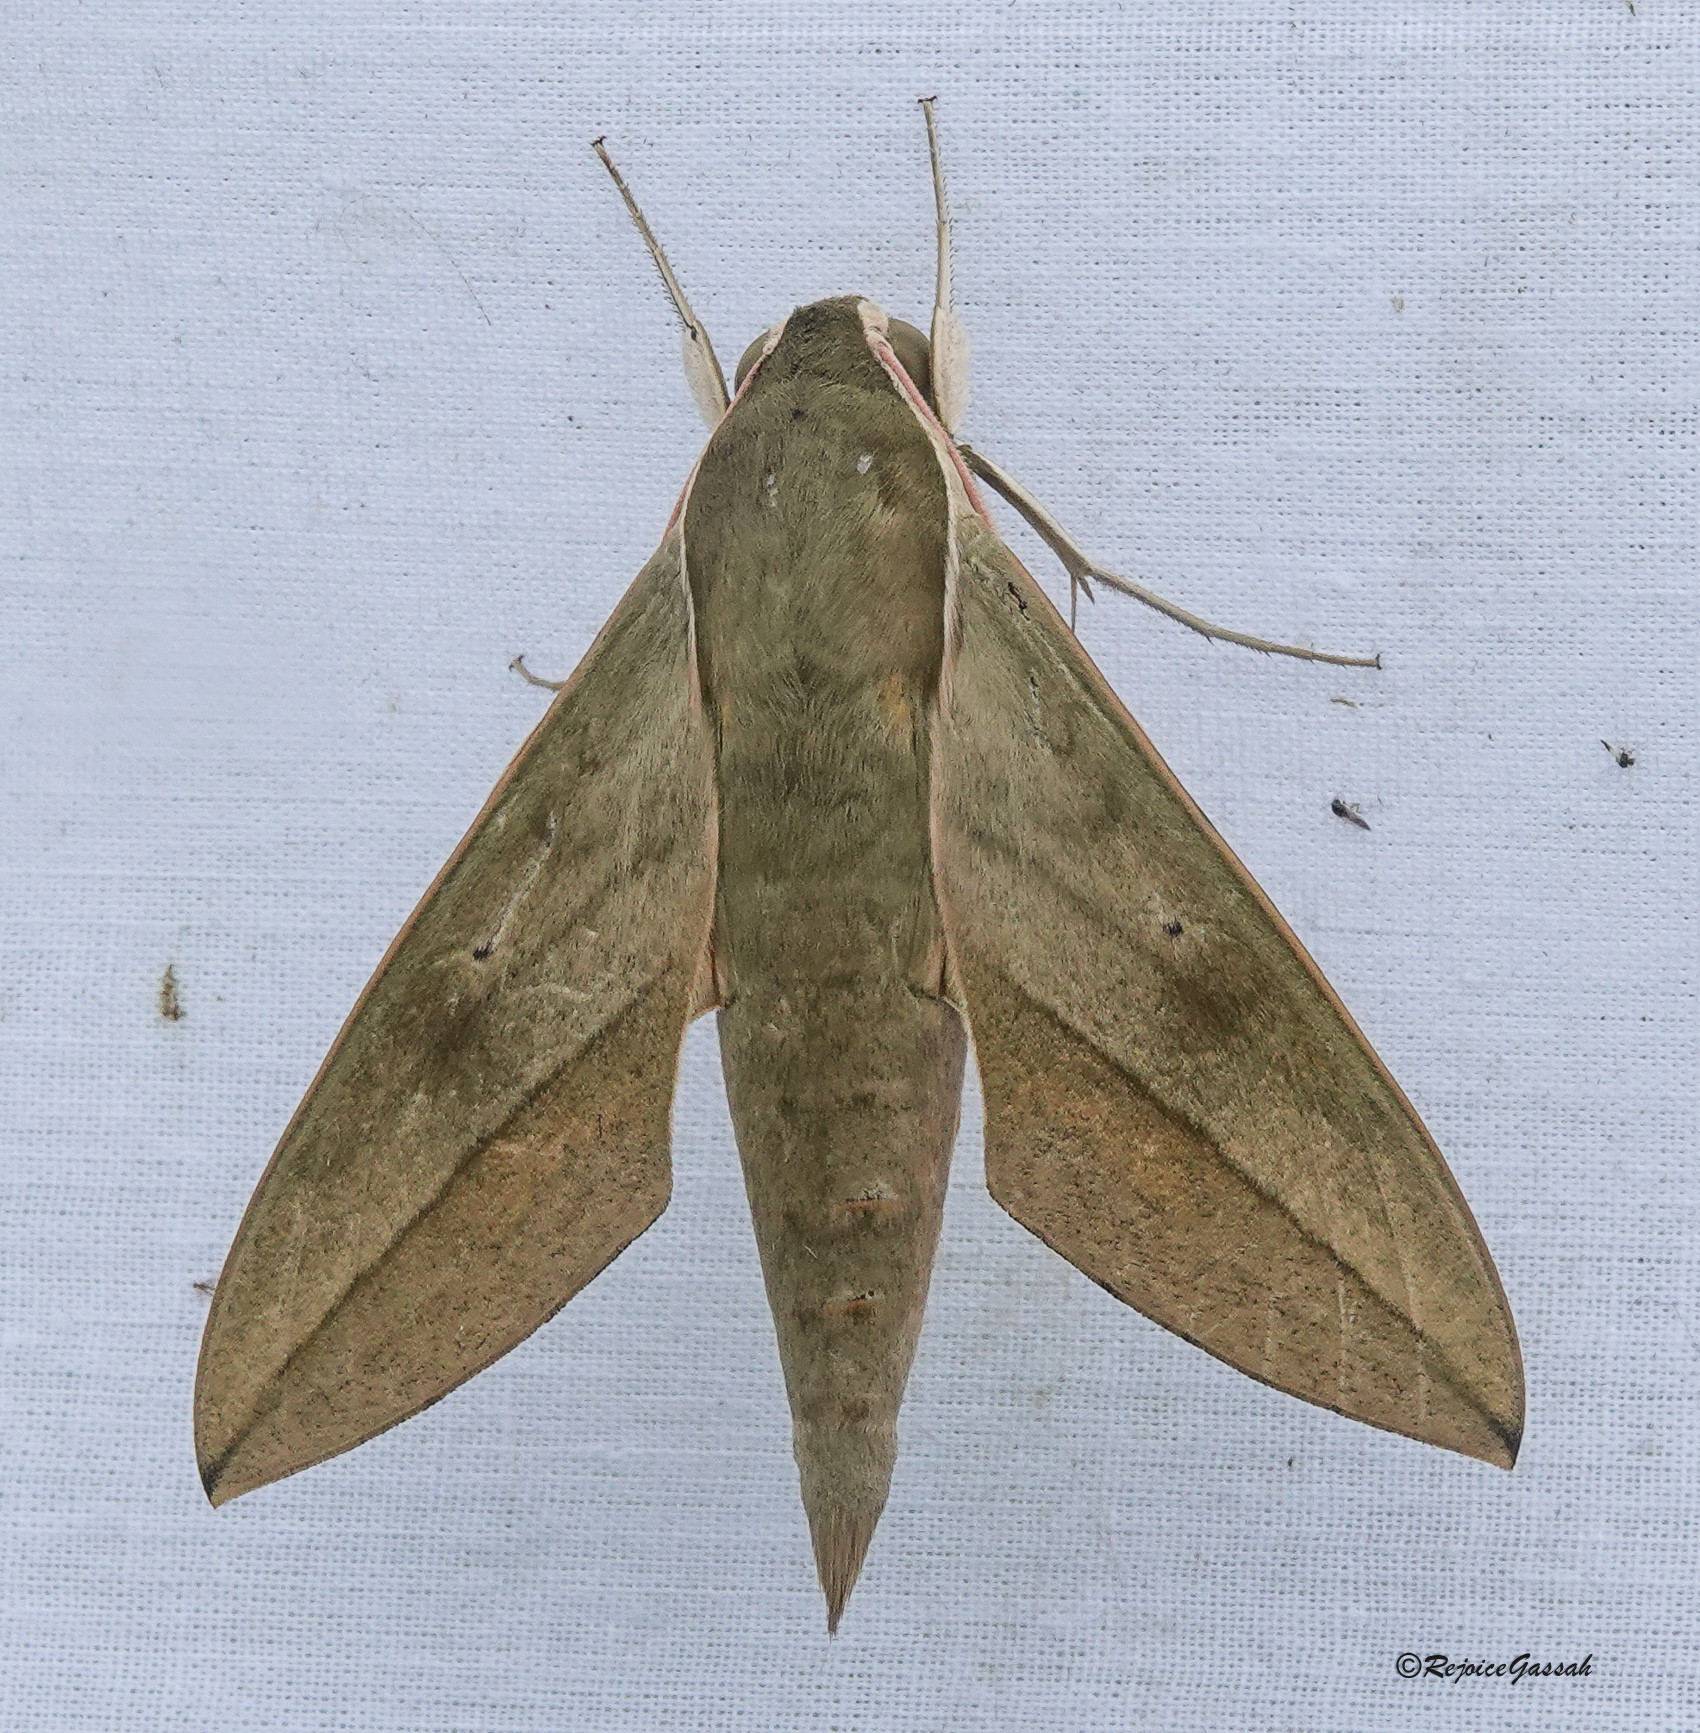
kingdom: Animalia
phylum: Arthropoda
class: Insecta
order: Lepidoptera
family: Sphingidae
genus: Theretra
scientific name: Theretra clotho
